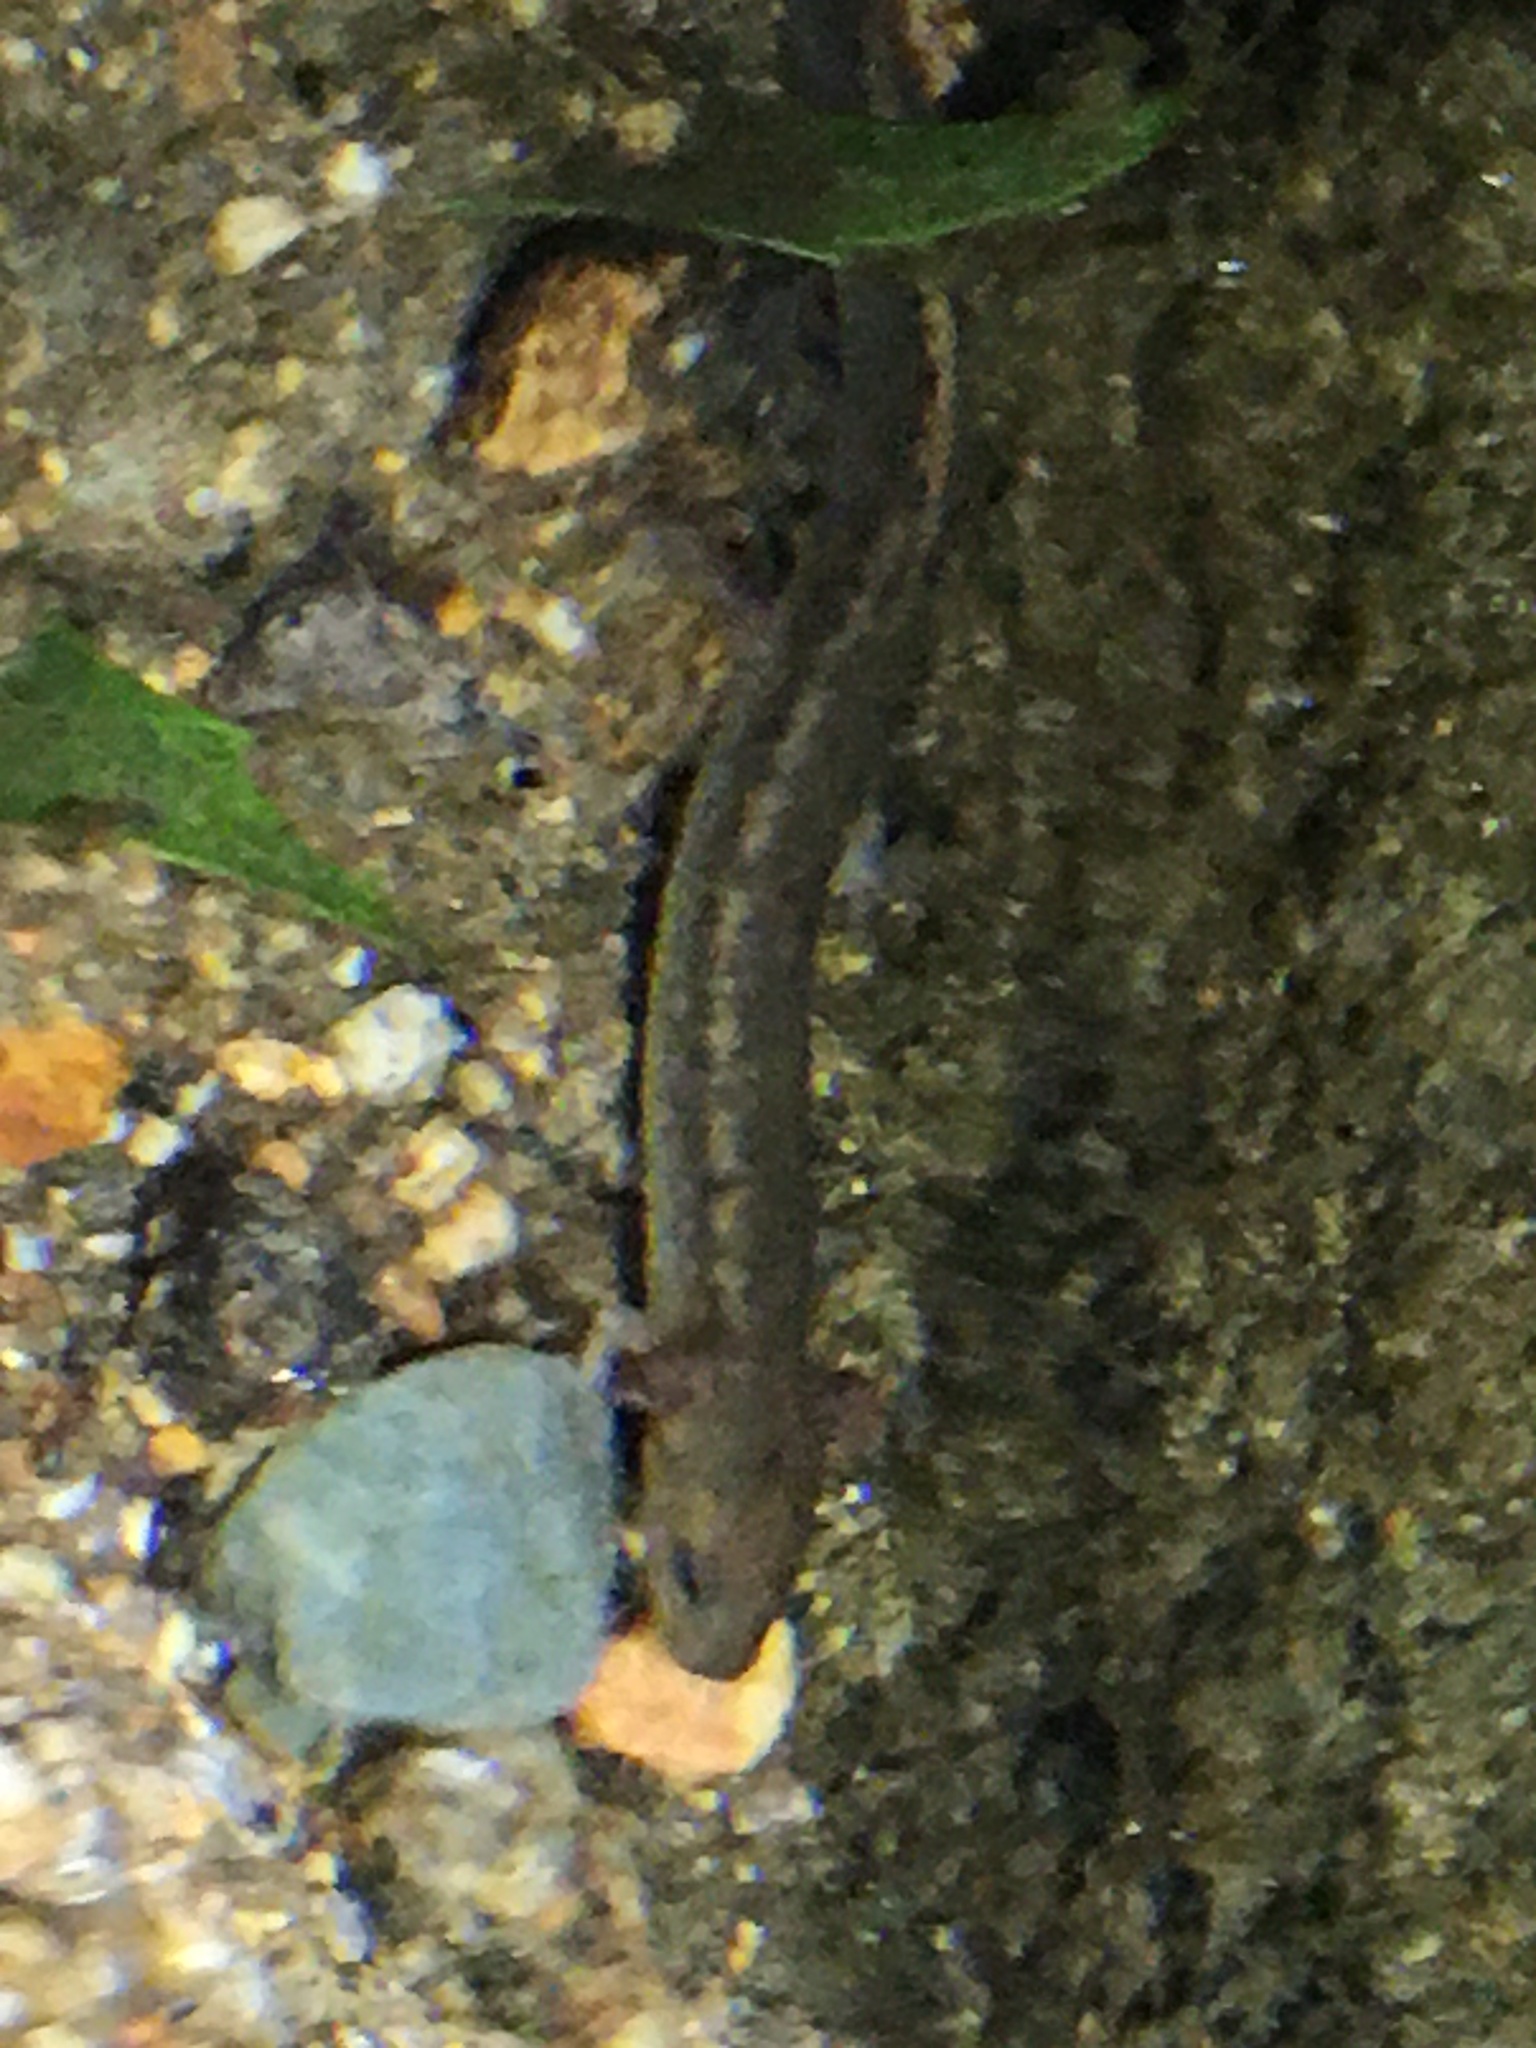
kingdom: Animalia
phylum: Chordata
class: Amphibia
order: Caudata
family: Plethodontidae
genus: Eurycea
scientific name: Eurycea bislineata
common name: Northern two-lined salamander
